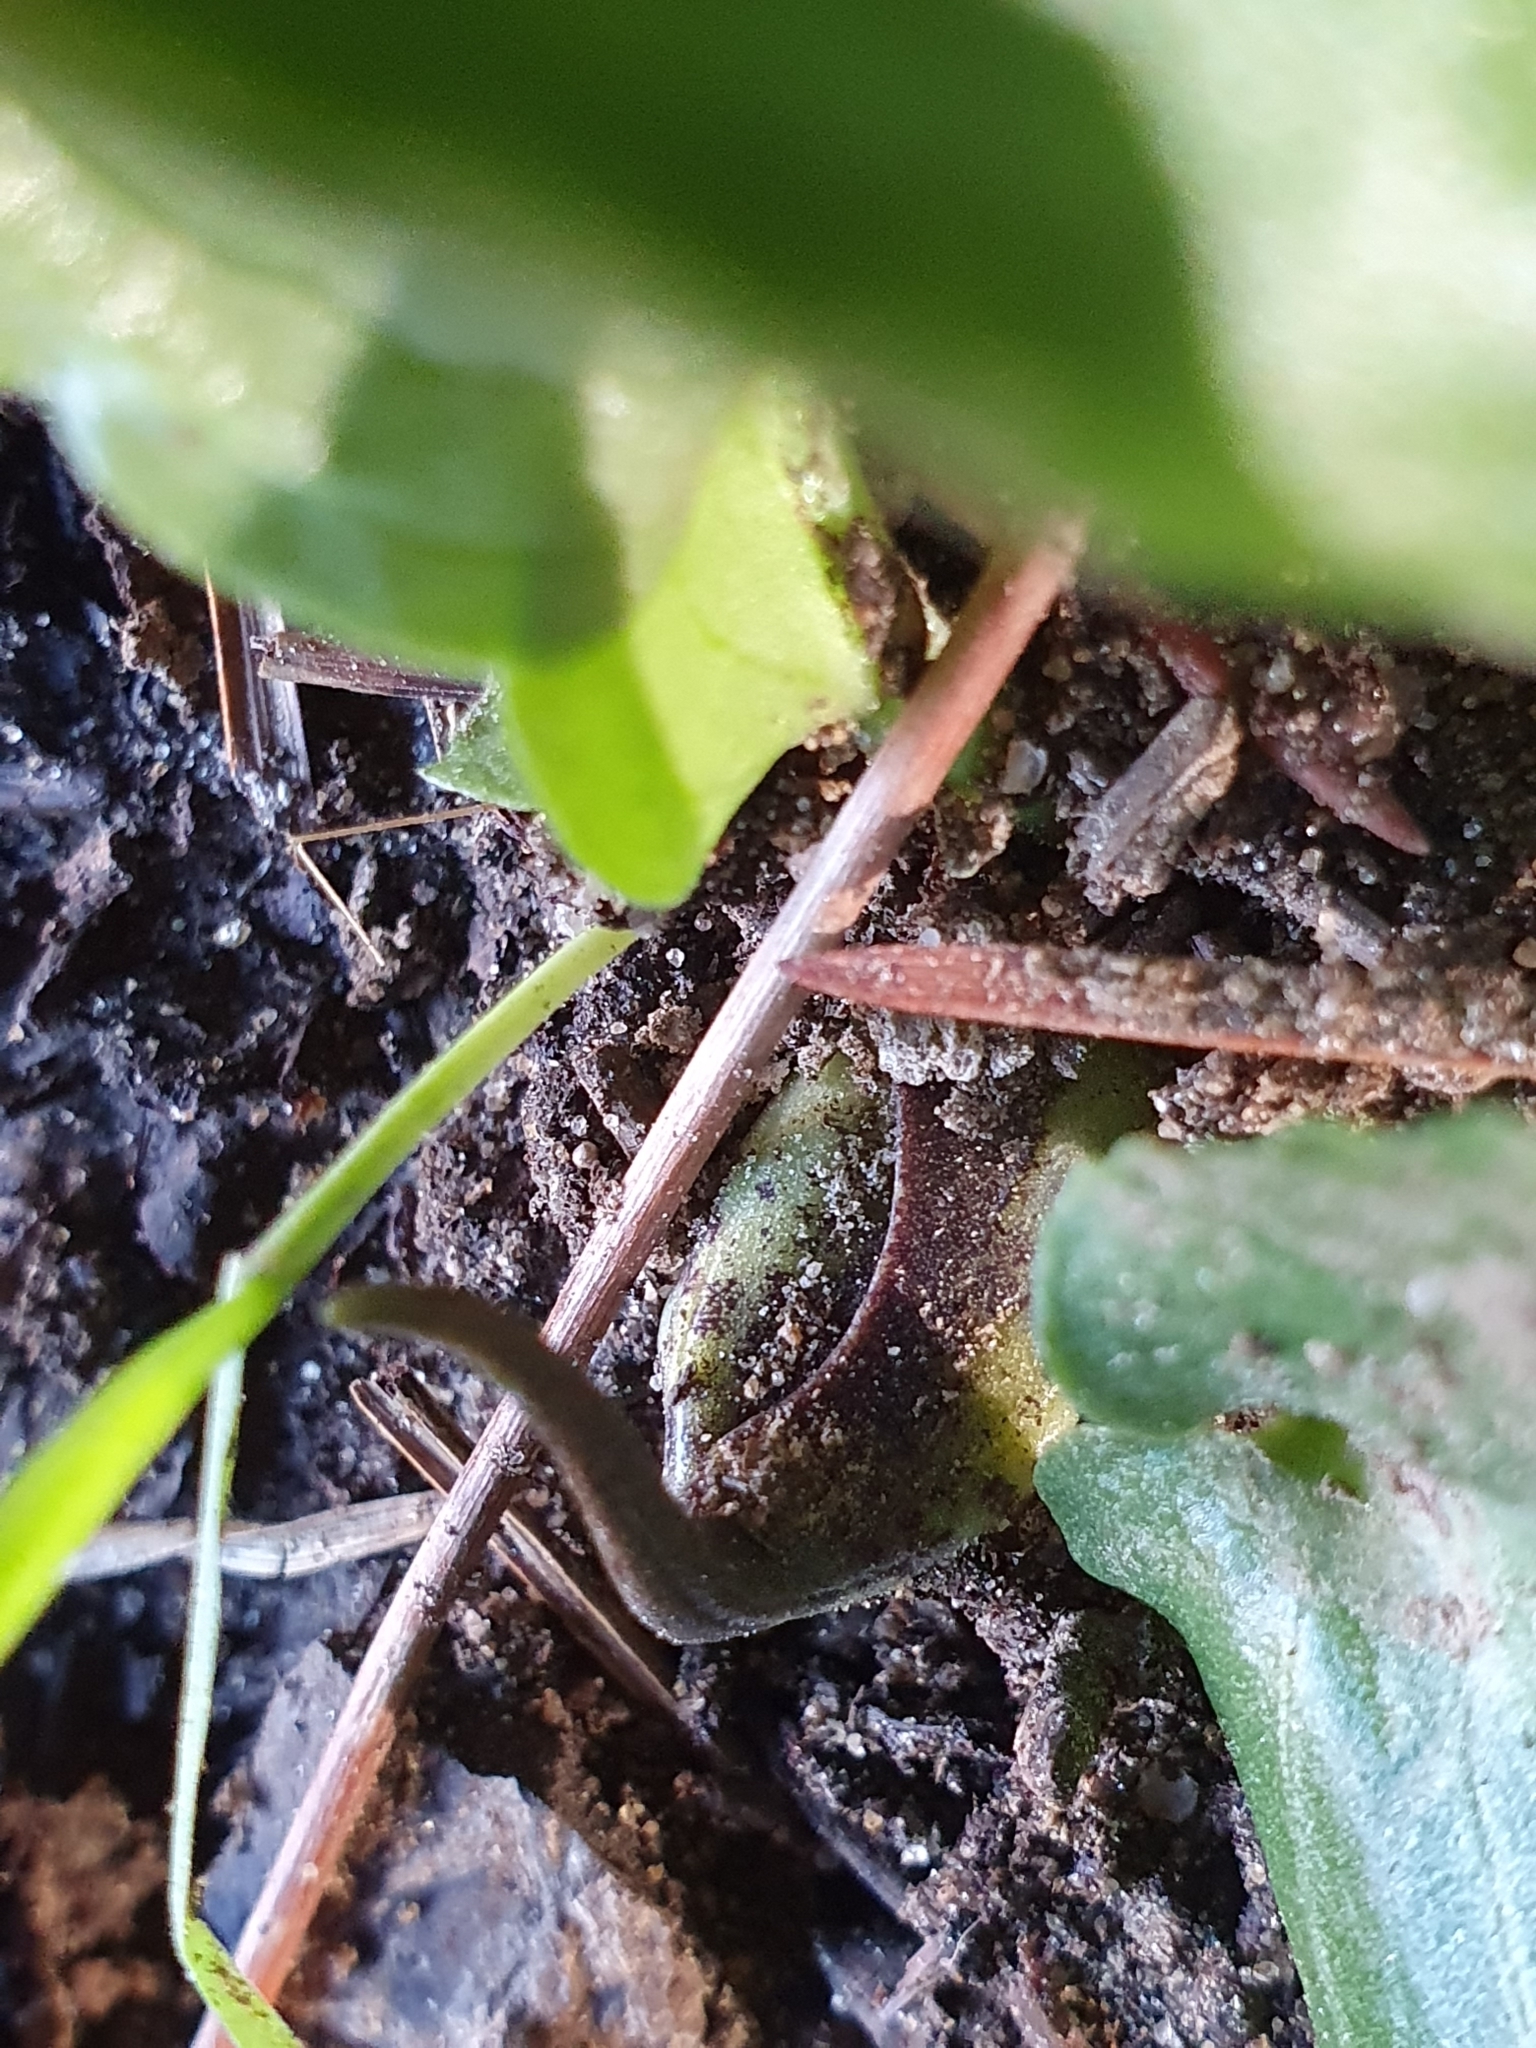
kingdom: Plantae
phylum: Tracheophyta
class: Liliopsida
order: Alismatales
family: Araceae
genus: Ambrosina
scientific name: Ambrosina bassii
